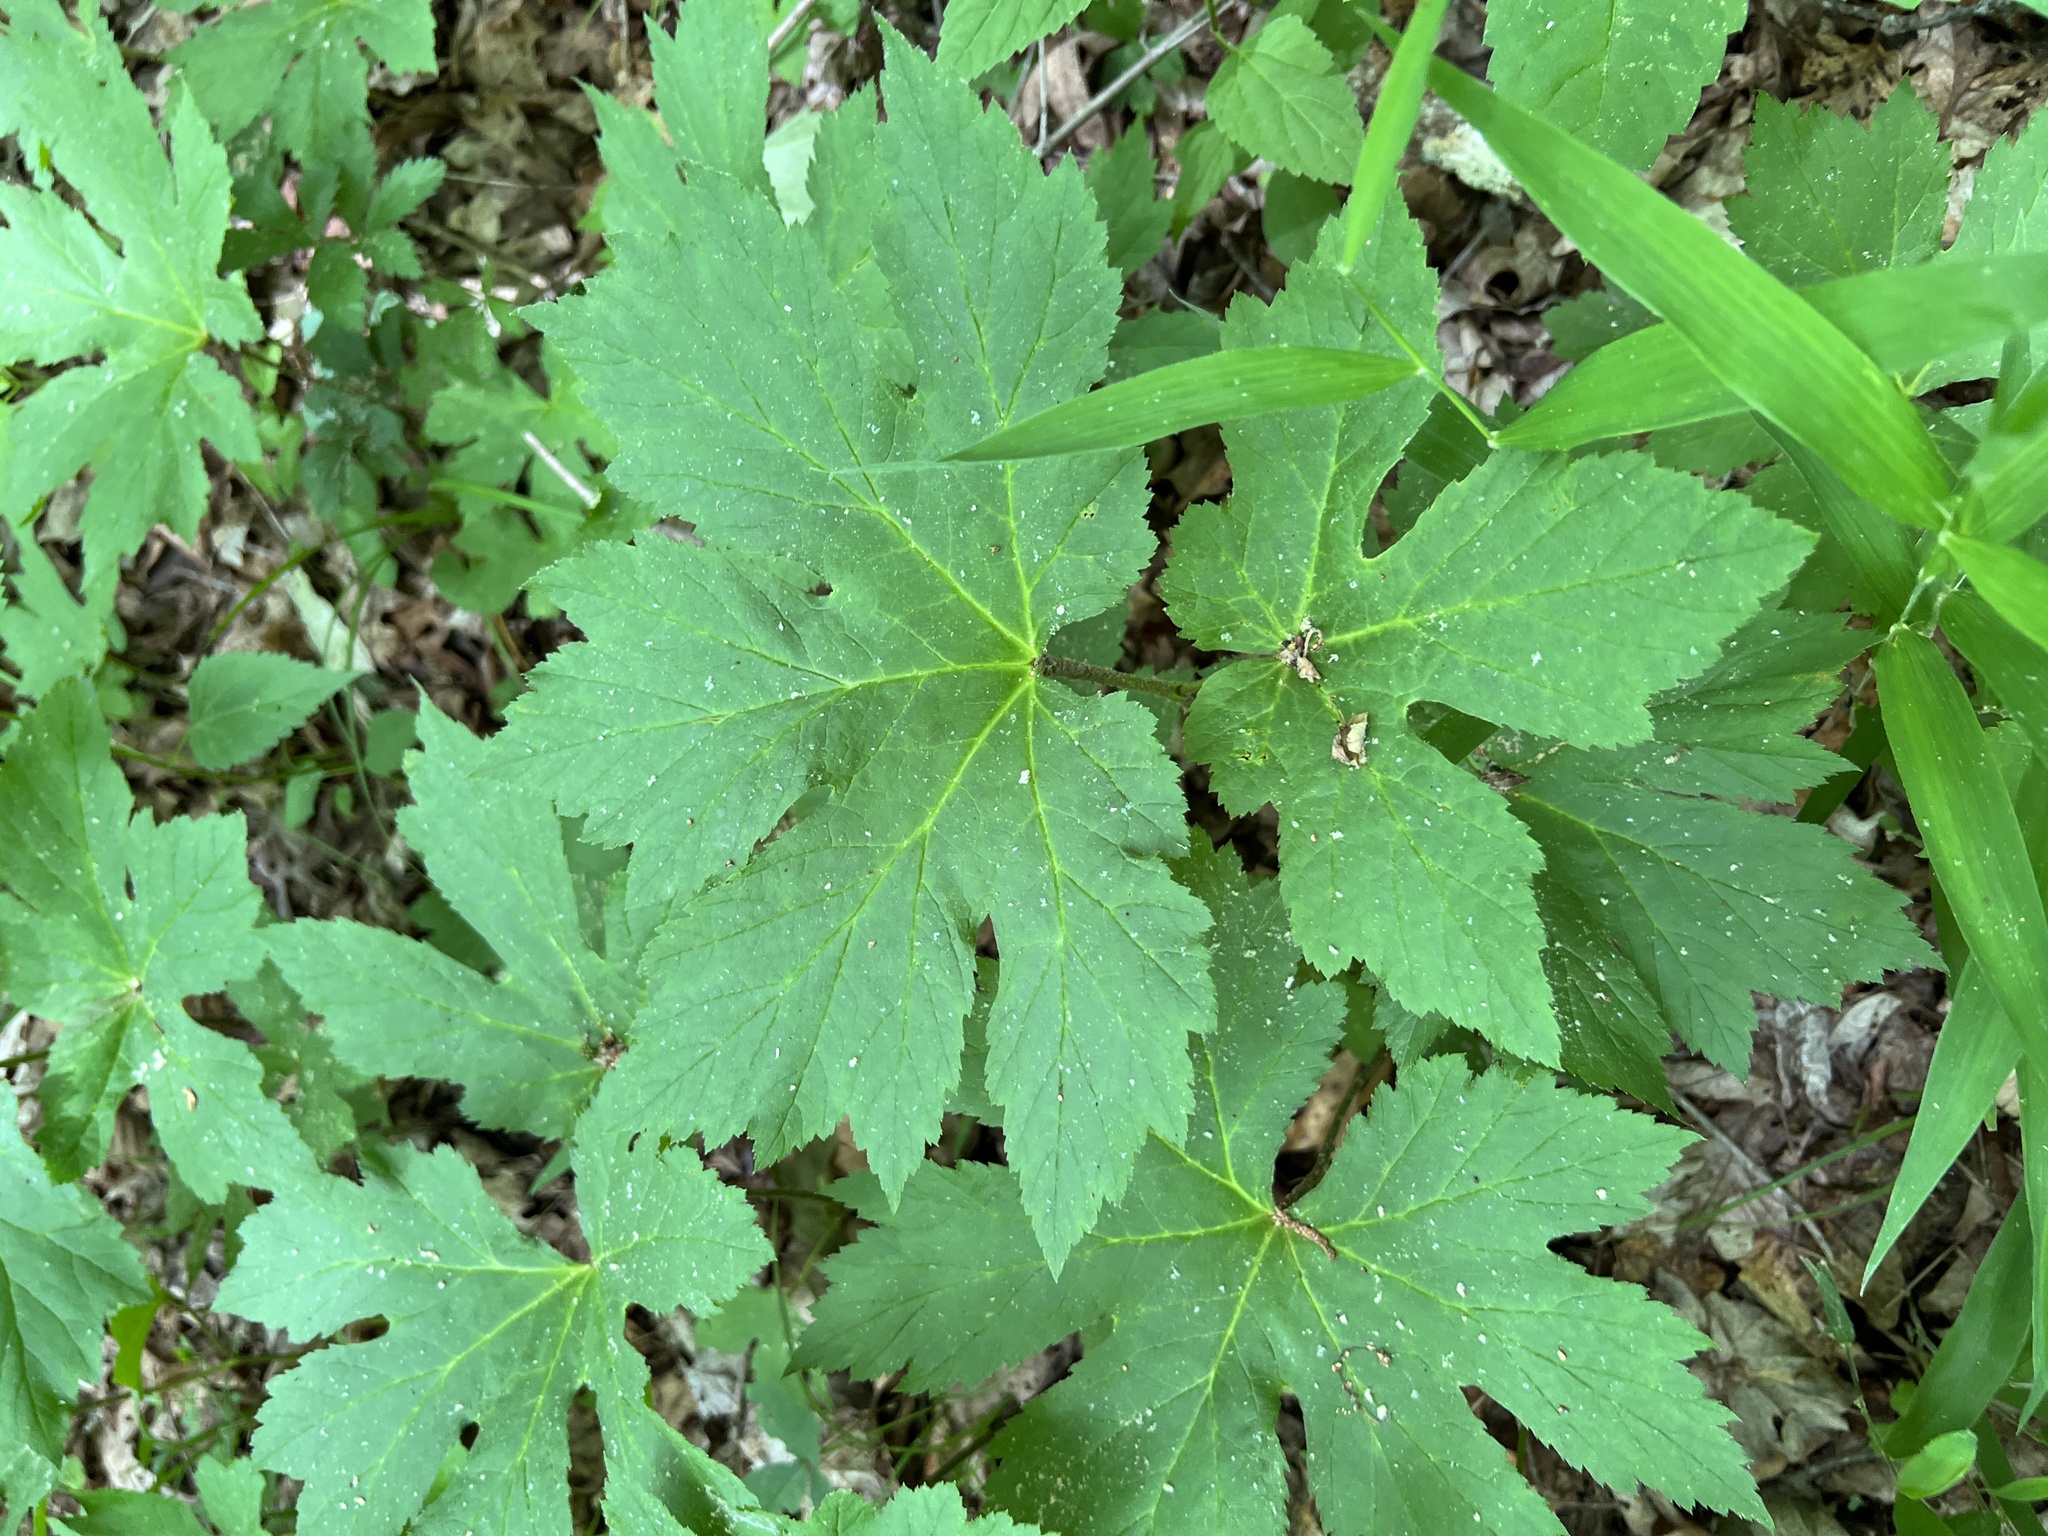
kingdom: Plantae
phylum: Tracheophyta
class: Magnoliopsida
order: Ranunculales
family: Ranunculaceae
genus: Hydrastis
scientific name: Hydrastis canadensis
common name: Goldenseal
